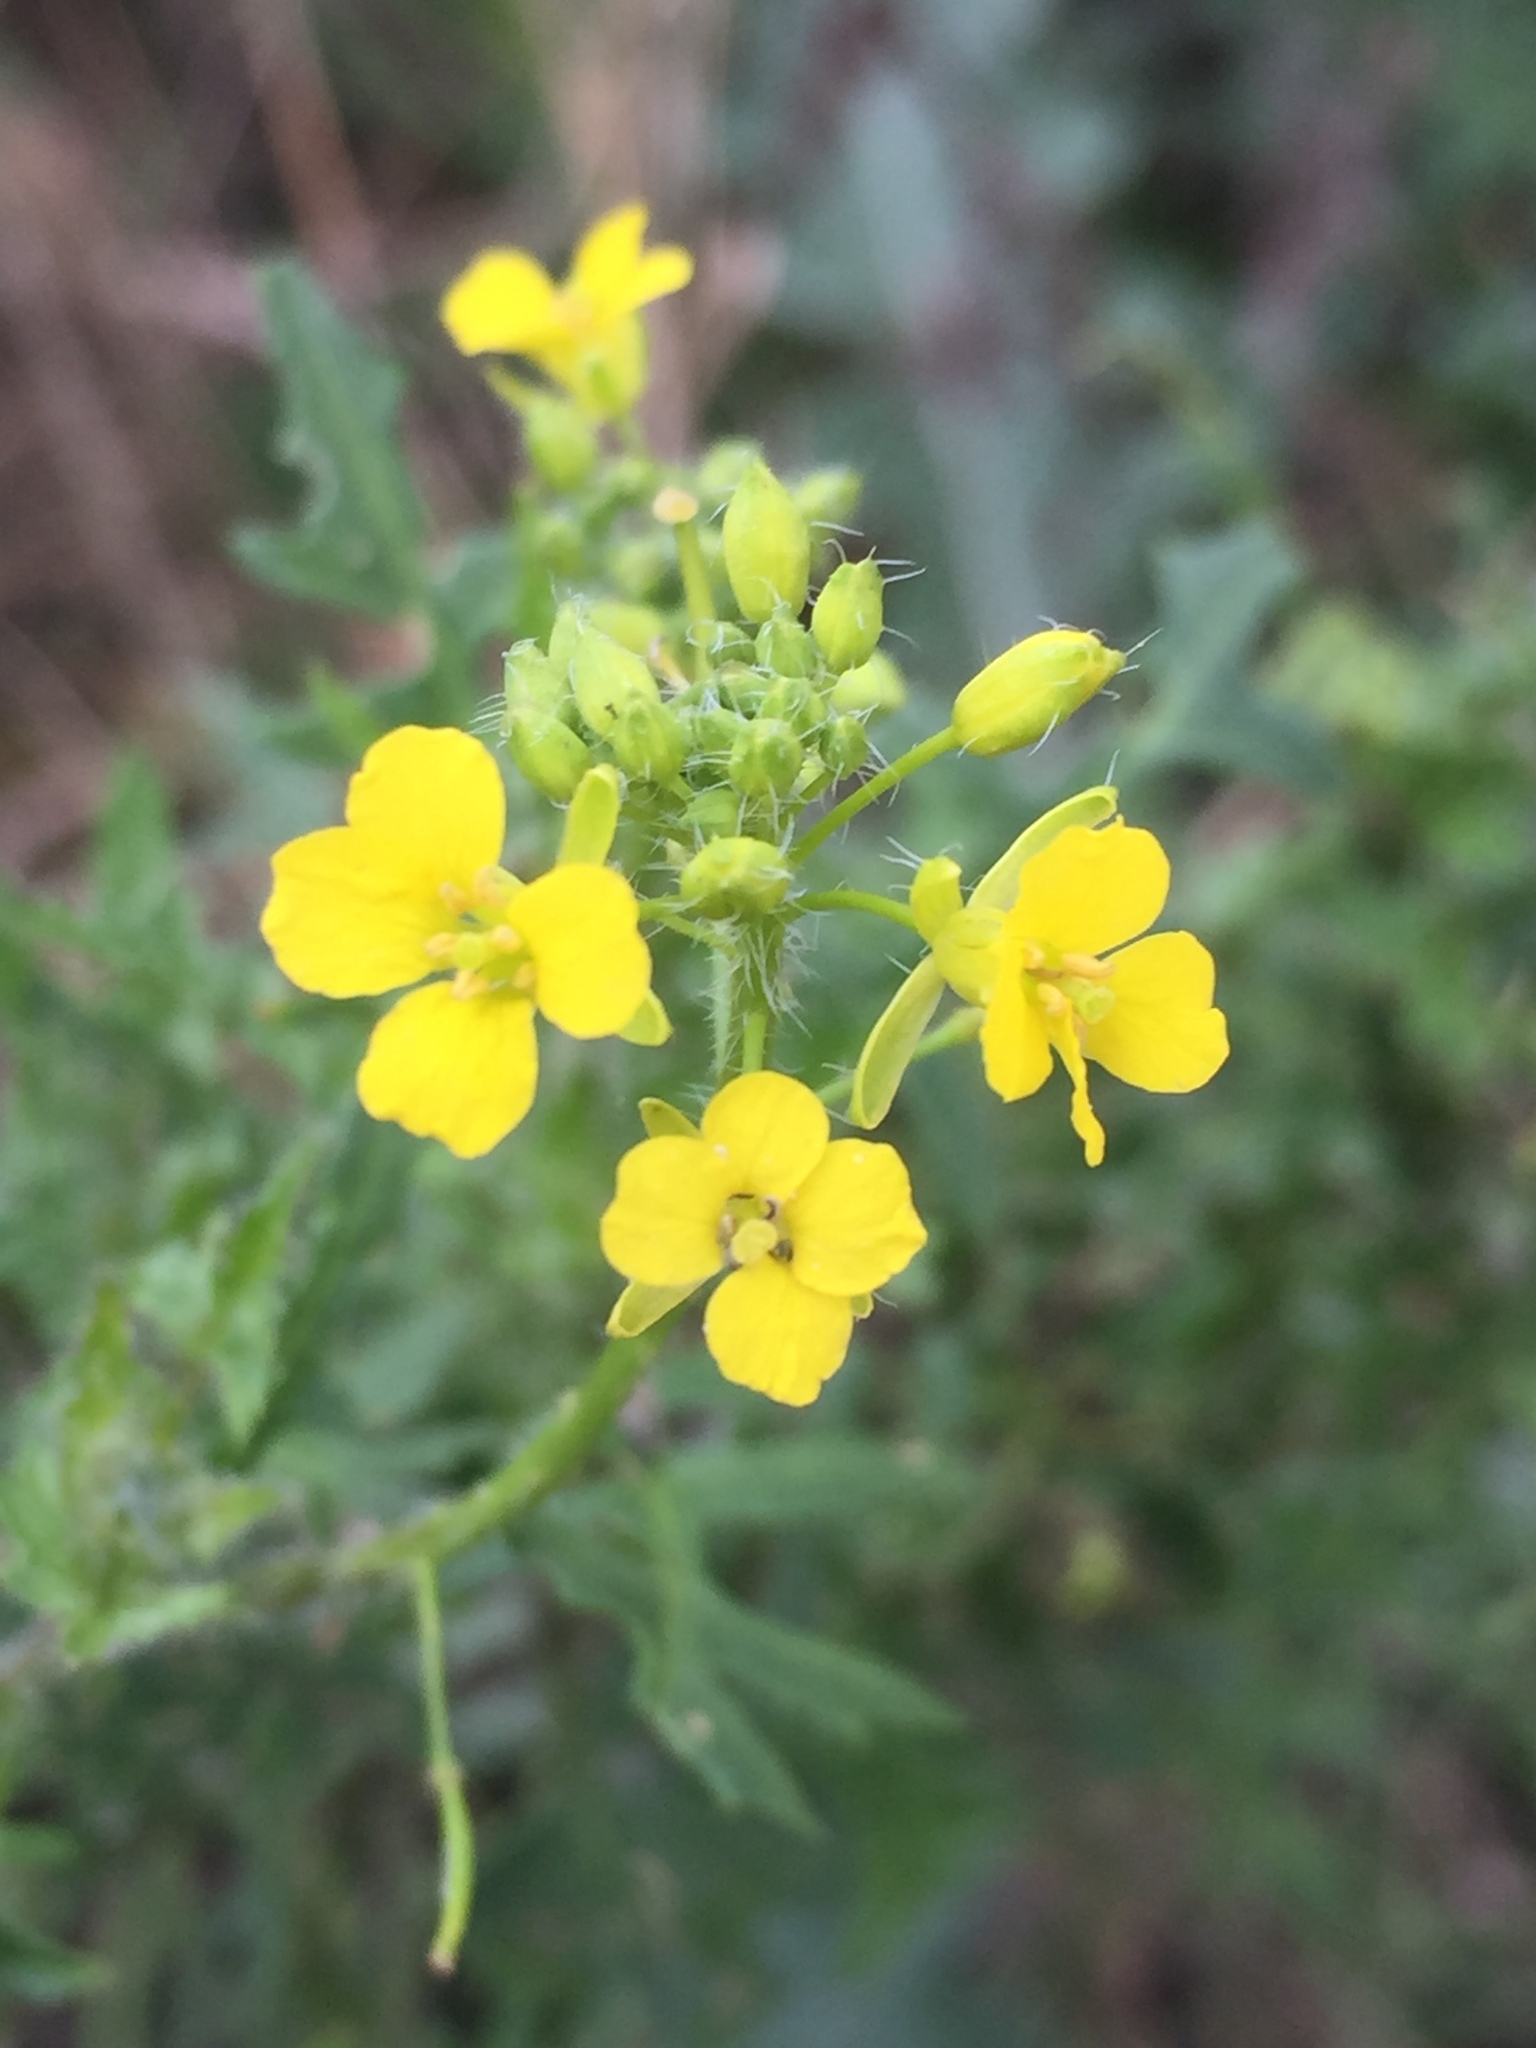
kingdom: Plantae
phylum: Tracheophyta
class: Magnoliopsida
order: Brassicales
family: Brassicaceae
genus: Sisymbrium
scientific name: Sisymbrium loeselii
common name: False london-rocket
